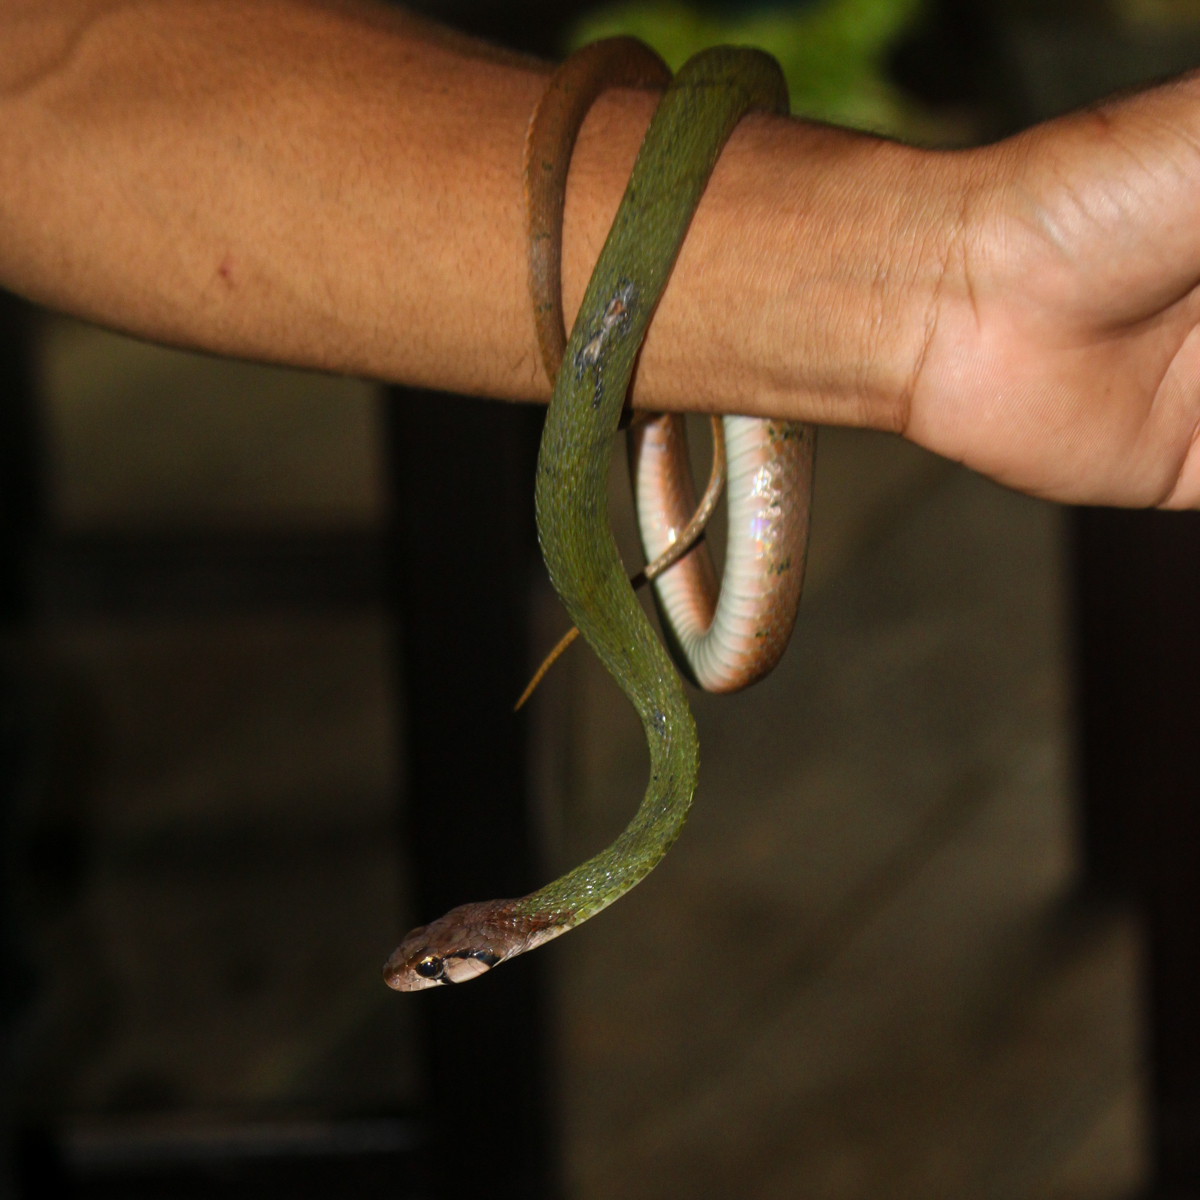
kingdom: Animalia
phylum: Chordata
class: Squamata
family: Colubridae
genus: Rhabdophis
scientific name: Rhabdophis nigrocinctus
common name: Green keelback
